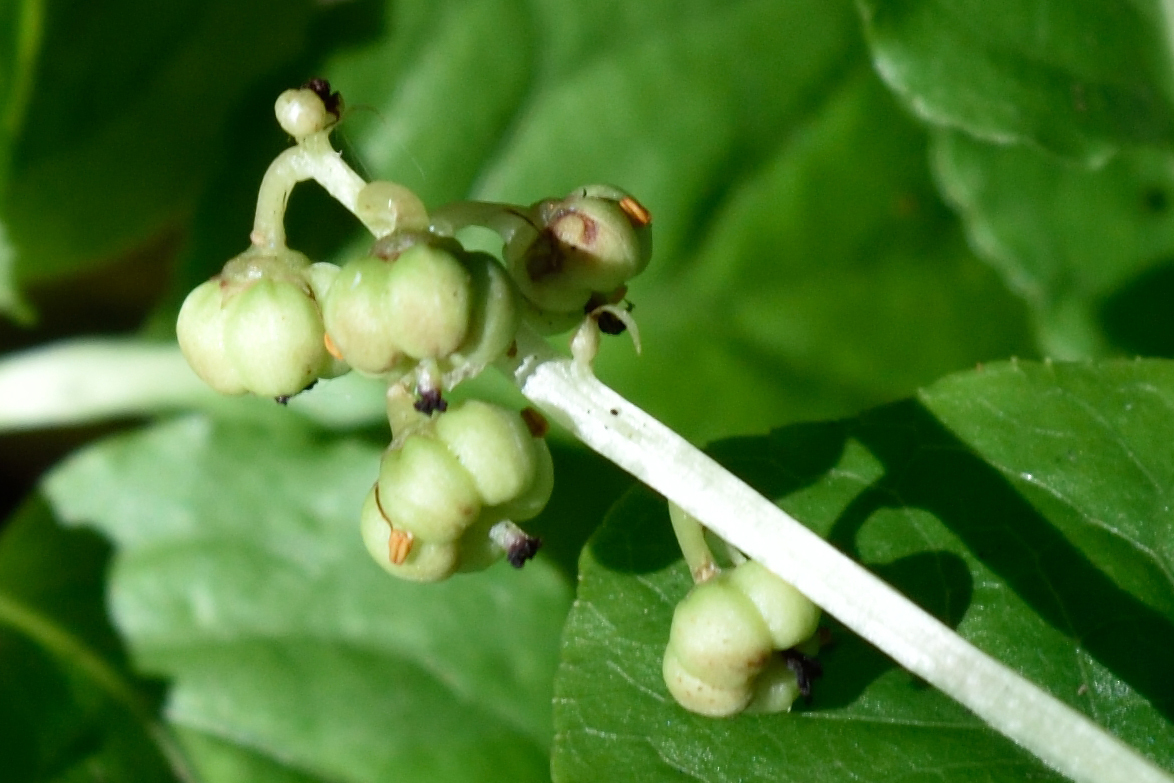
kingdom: Plantae
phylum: Tracheophyta
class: Magnoliopsida
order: Ericales
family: Ericaceae
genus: Pyrola
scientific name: Pyrola minor
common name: Common wintergreen
